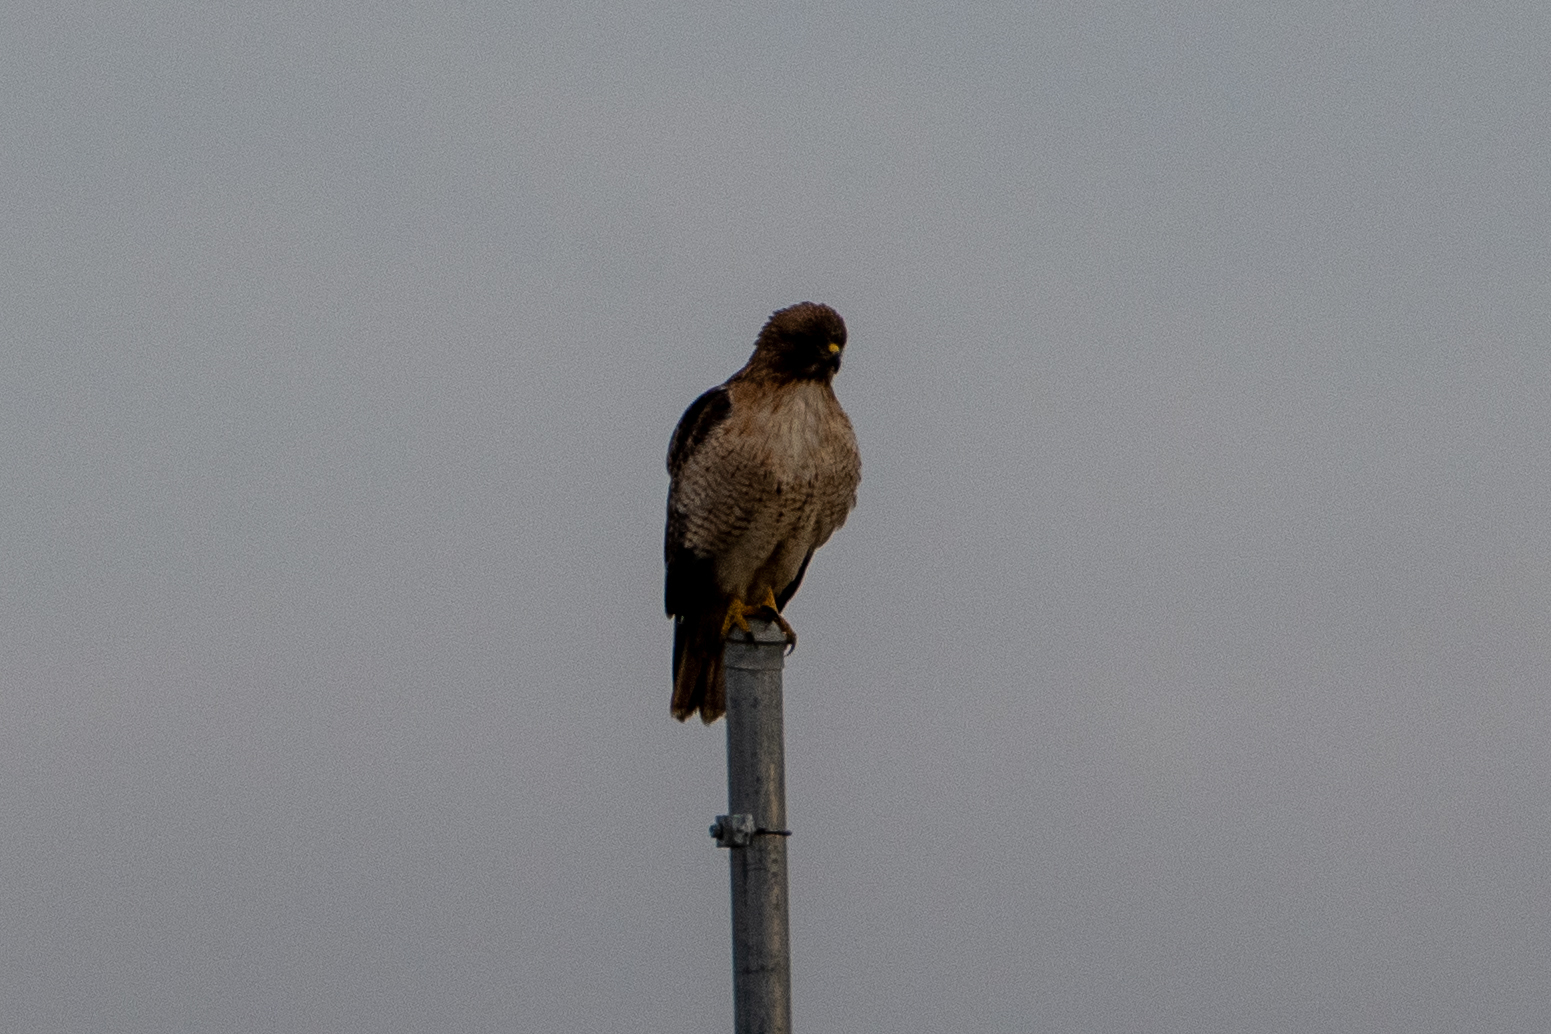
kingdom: Animalia
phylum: Chordata
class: Aves
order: Accipitriformes
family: Accipitridae
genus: Buteo
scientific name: Buteo jamaicensis
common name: Red-tailed hawk
